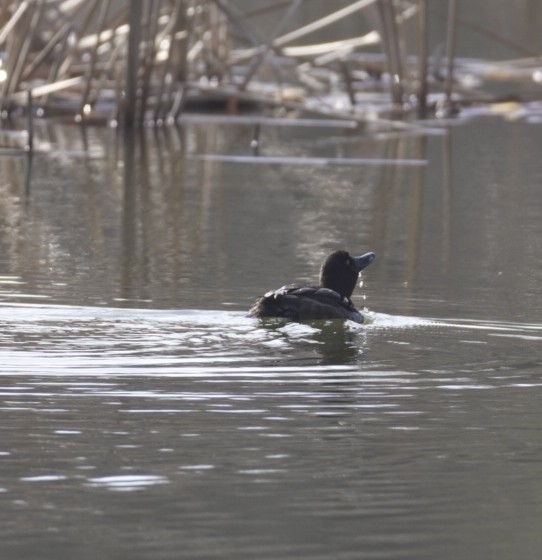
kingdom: Animalia
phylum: Chordata
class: Aves
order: Anseriformes
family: Anatidae
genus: Aythya
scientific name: Aythya fuligula
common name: Tufted duck
